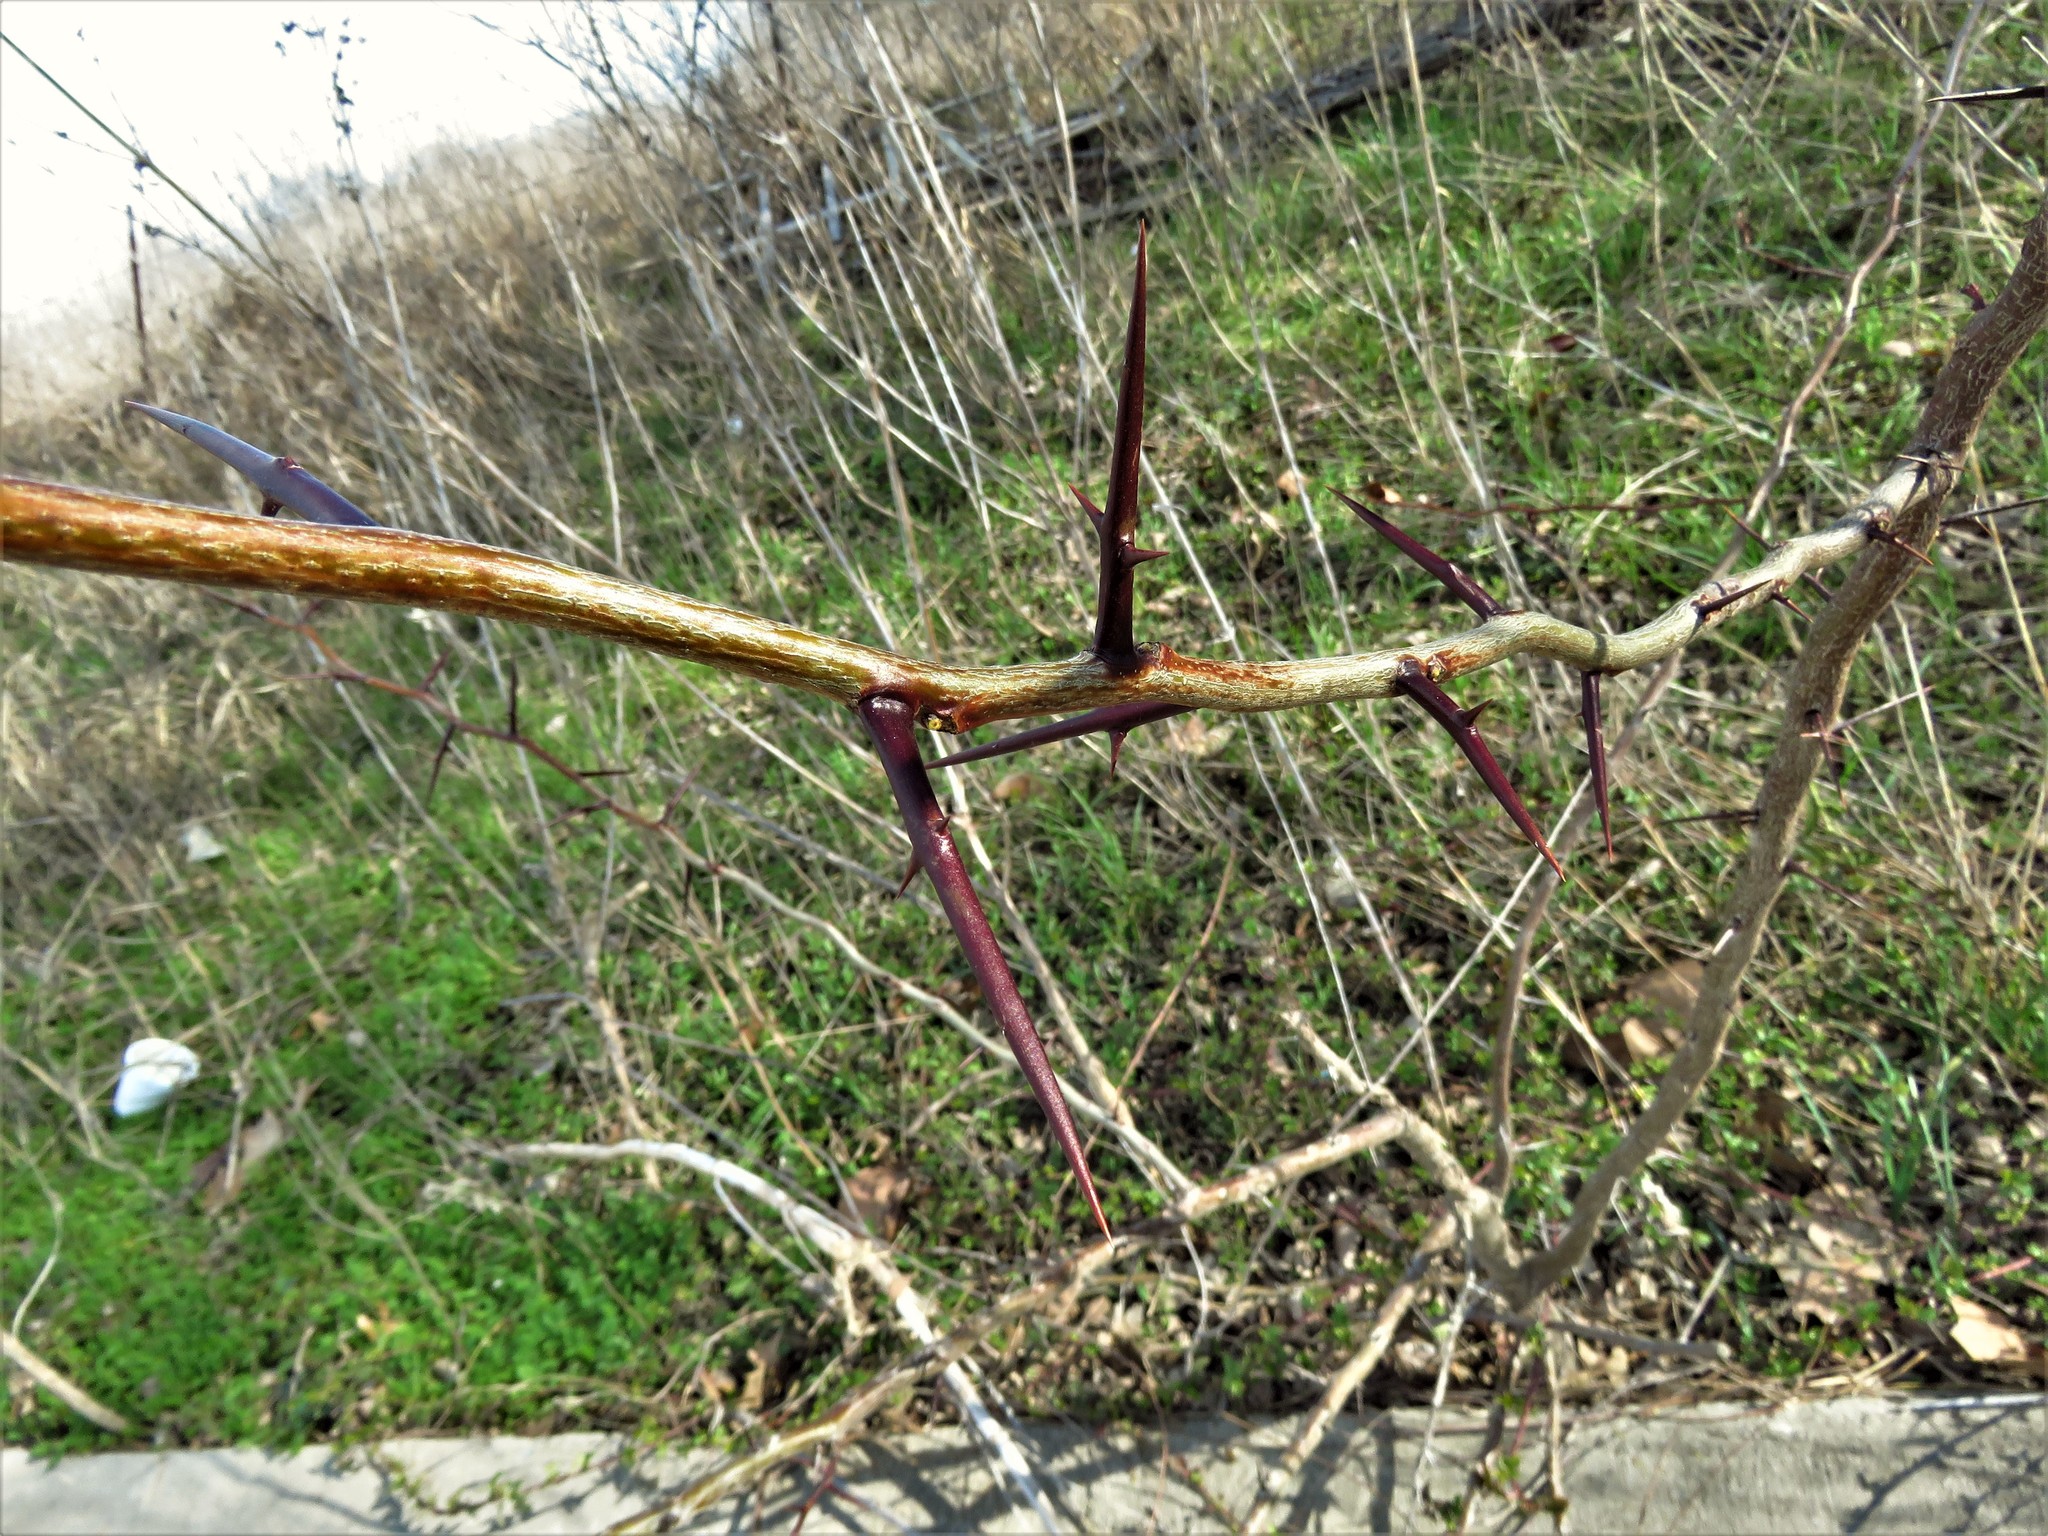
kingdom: Plantae
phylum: Tracheophyta
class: Magnoliopsida
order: Fabales
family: Fabaceae
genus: Gleditsia
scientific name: Gleditsia triacanthos
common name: Common honeylocust
